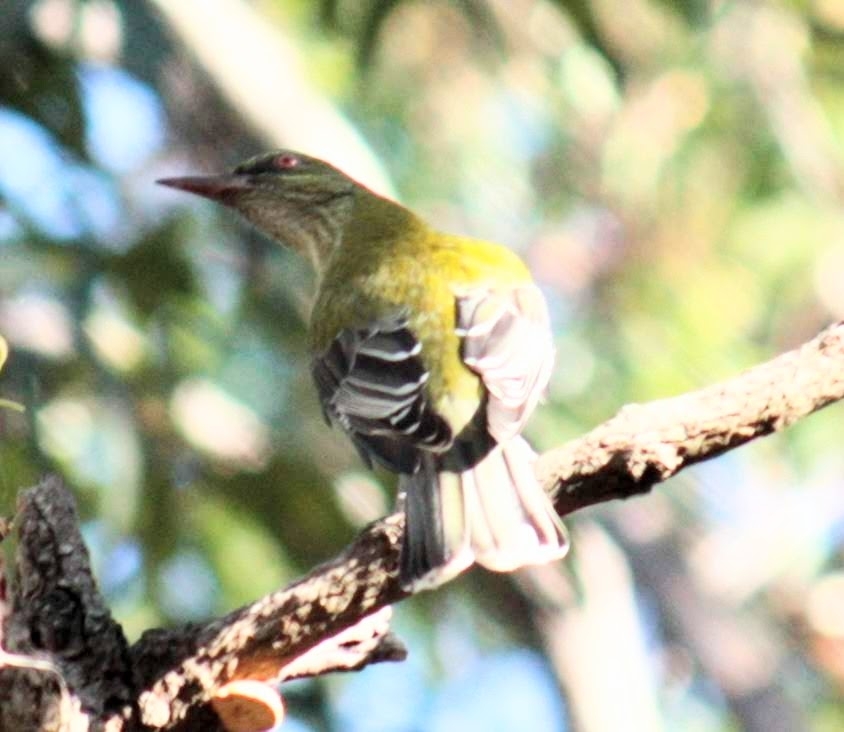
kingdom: Animalia
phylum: Chordata
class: Aves
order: Passeriformes
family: Oriolidae
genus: Oriolus
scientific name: Oriolus sagittatus
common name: Olive-backed oriole
